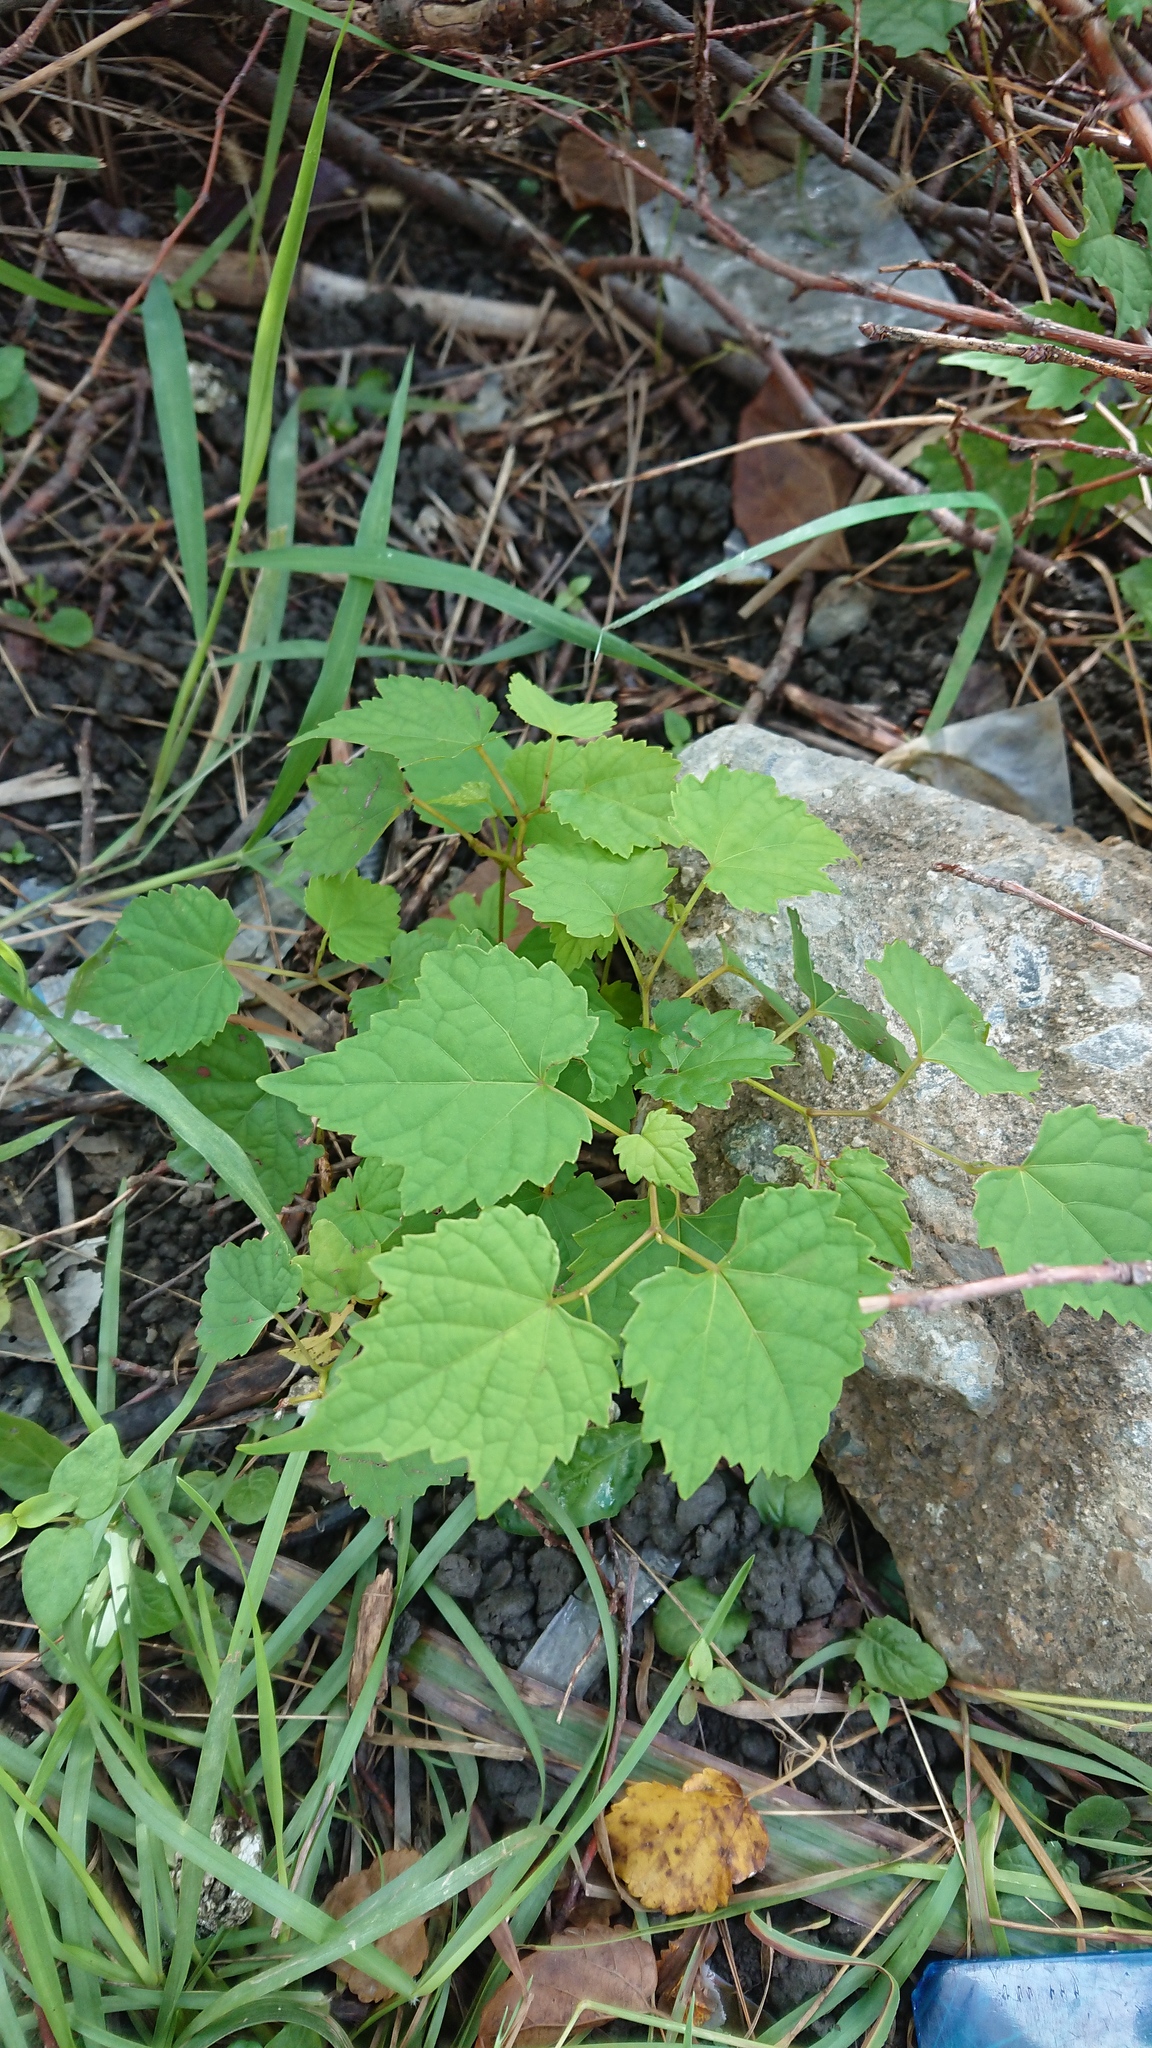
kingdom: Plantae
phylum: Tracheophyta
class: Magnoliopsida
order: Vitales
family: Vitaceae
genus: Ampelopsis
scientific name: Ampelopsis glandulosa
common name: Amur peppervine
